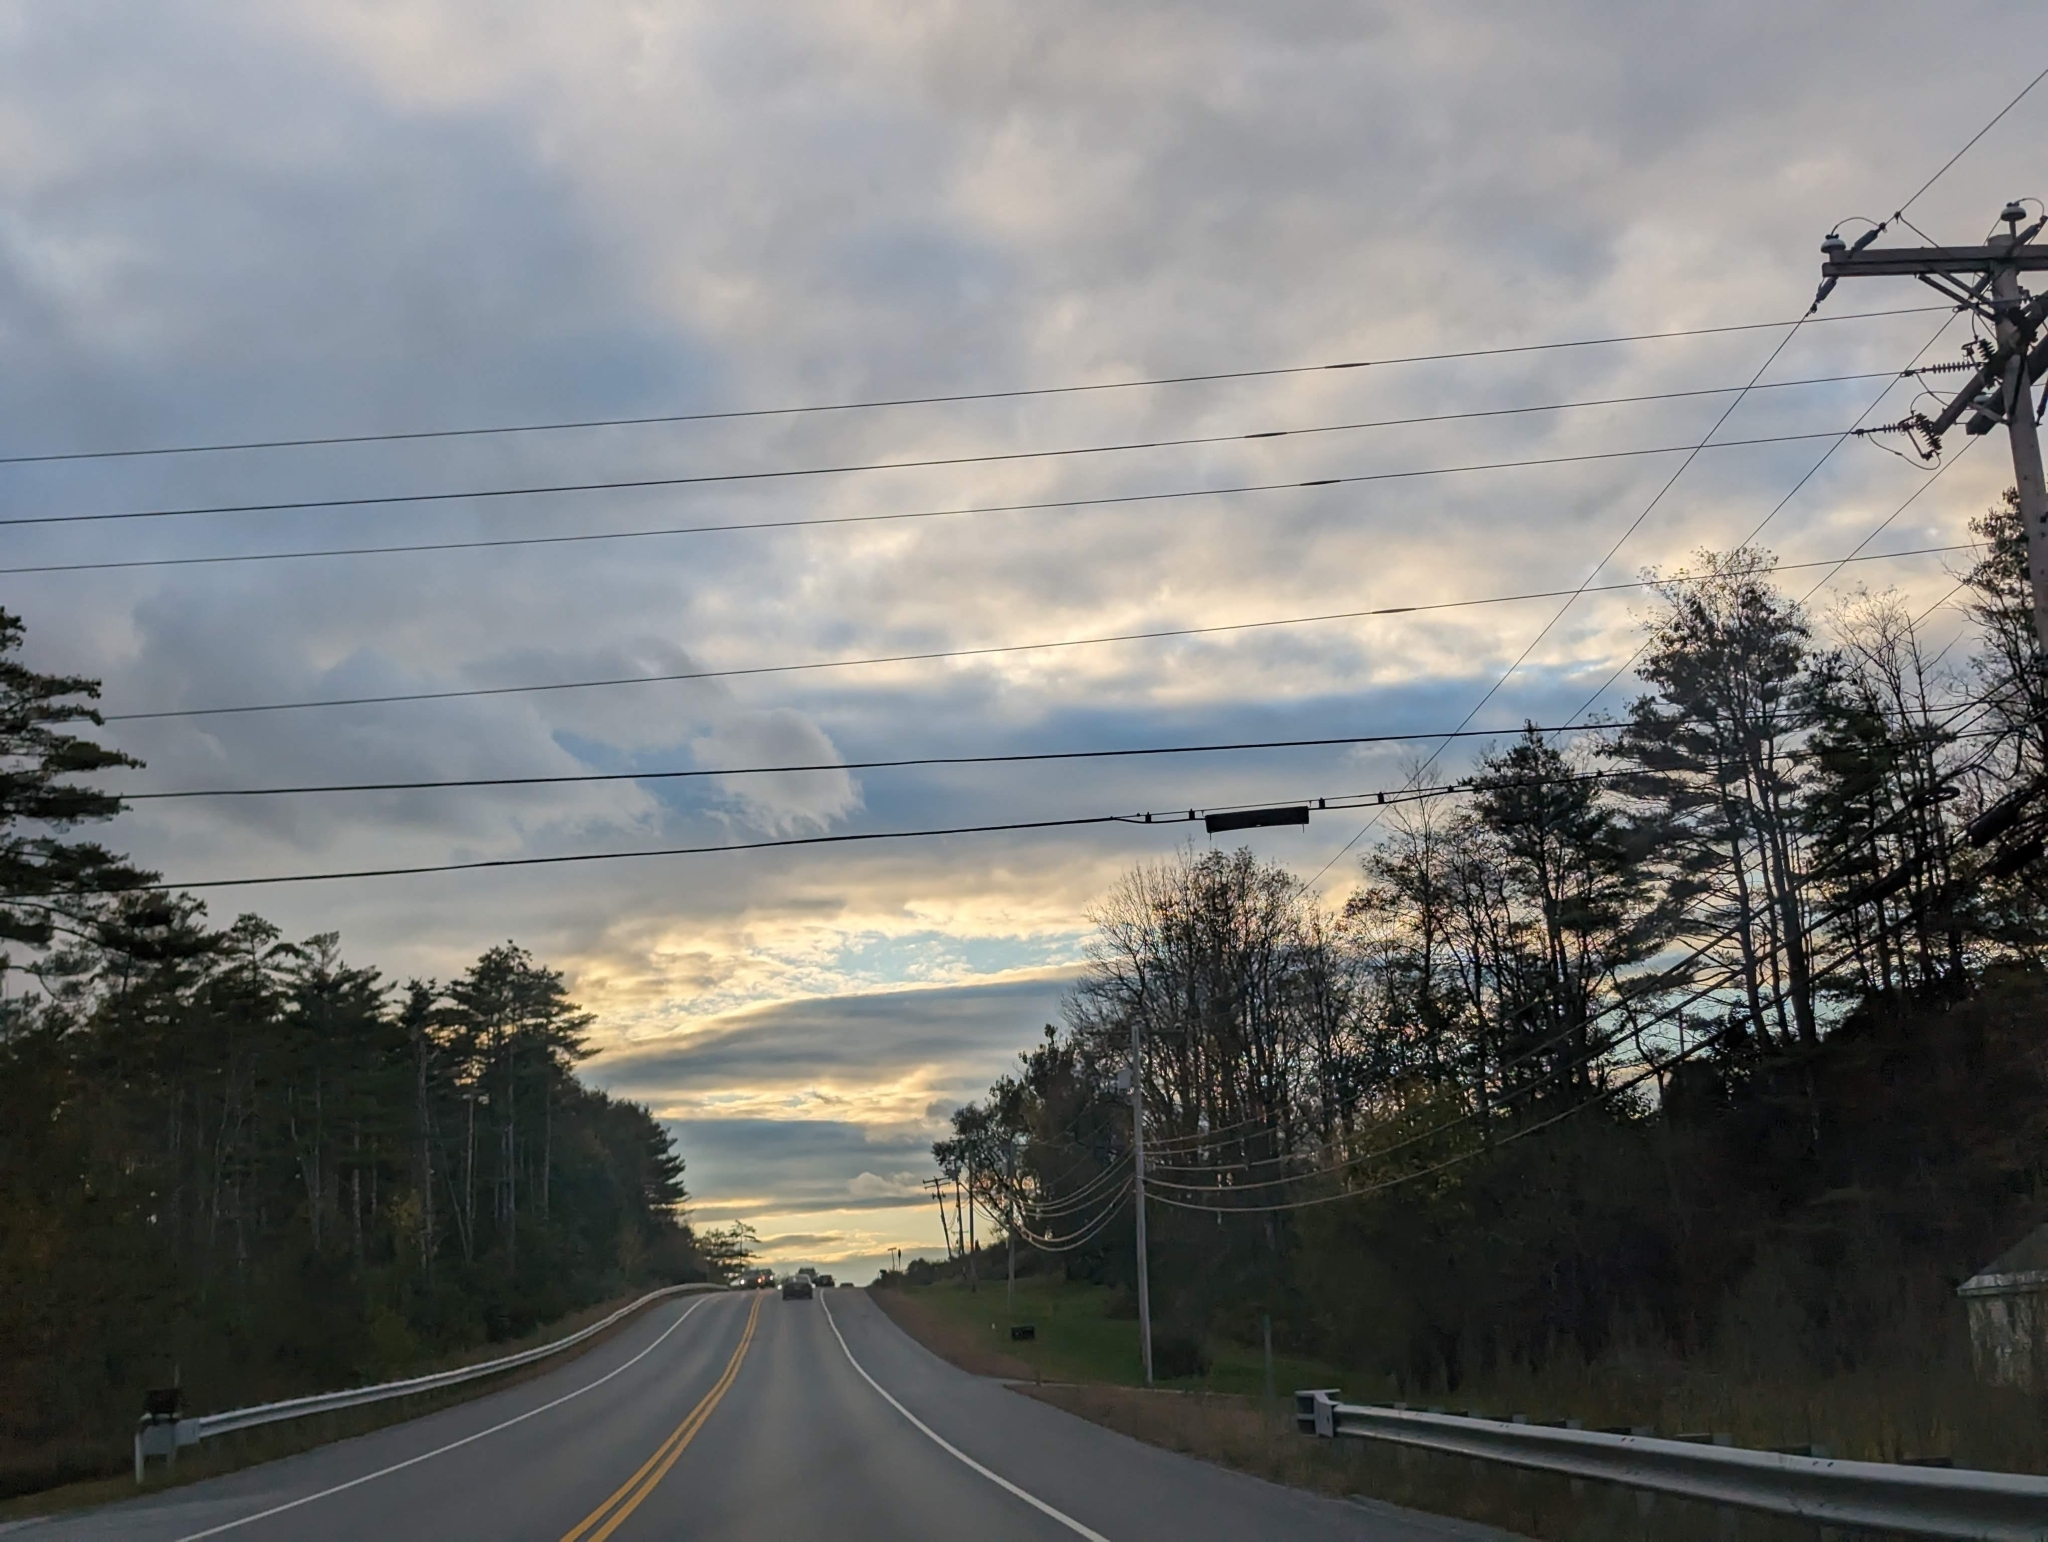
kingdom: Plantae
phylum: Tracheophyta
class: Pinopsida
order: Pinales
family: Pinaceae
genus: Pinus
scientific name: Pinus strobus
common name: Weymouth pine
